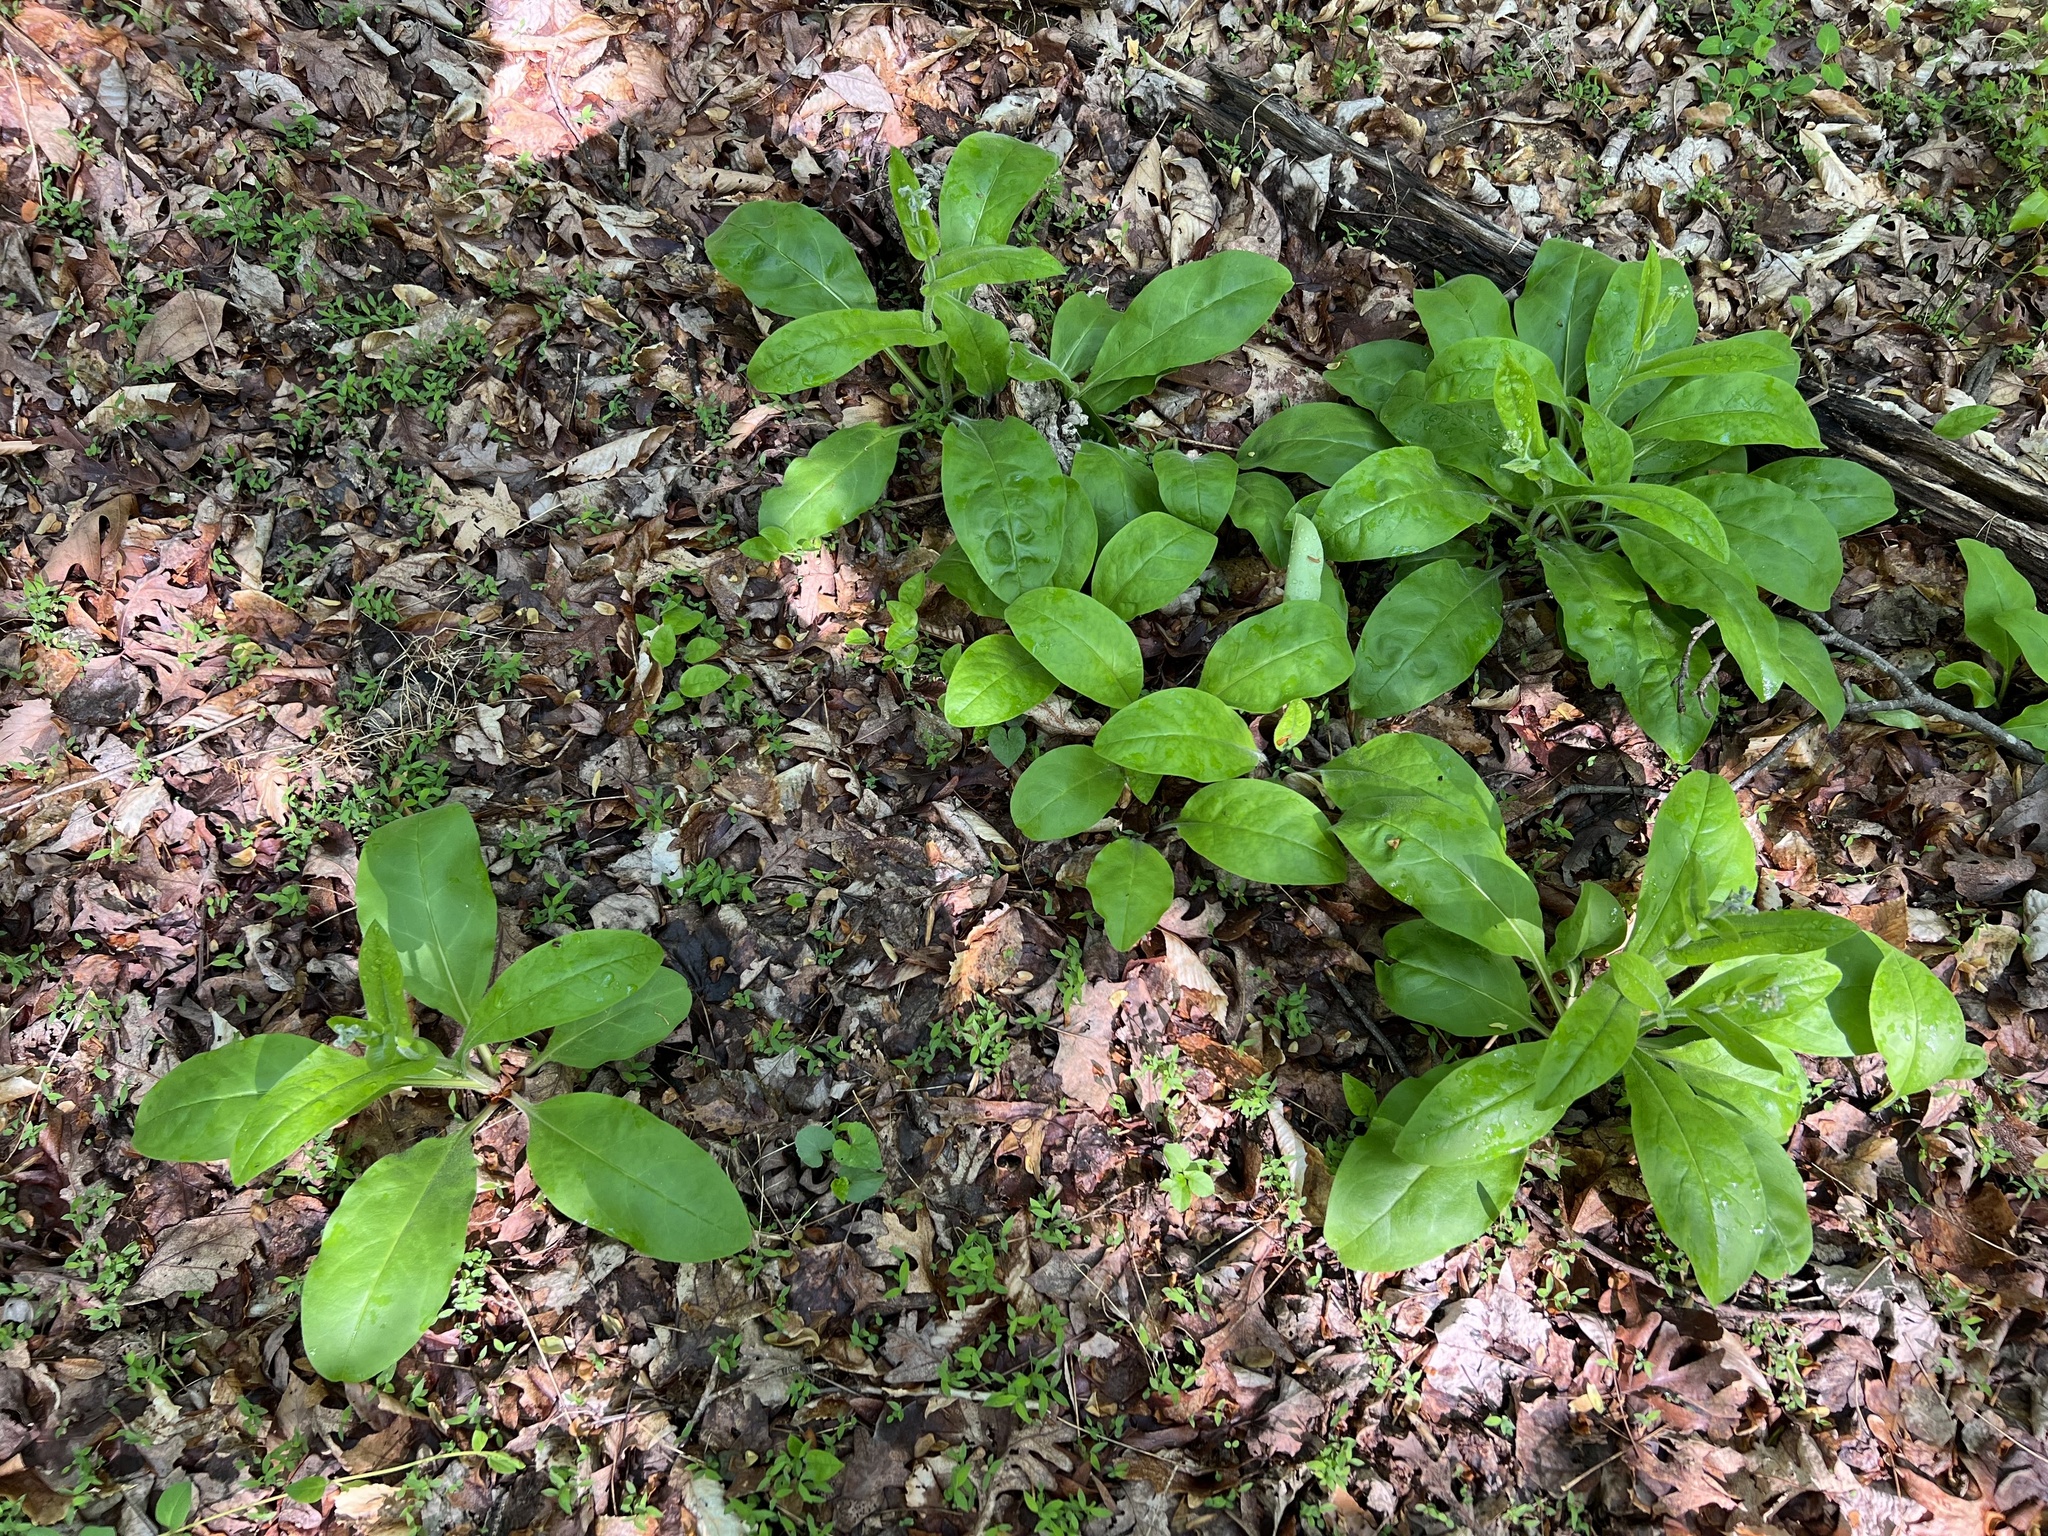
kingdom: Plantae
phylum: Tracheophyta
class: Magnoliopsida
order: Boraginales
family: Boraginaceae
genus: Andersonglossum
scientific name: Andersonglossum virginianum
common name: Wild comfrey
